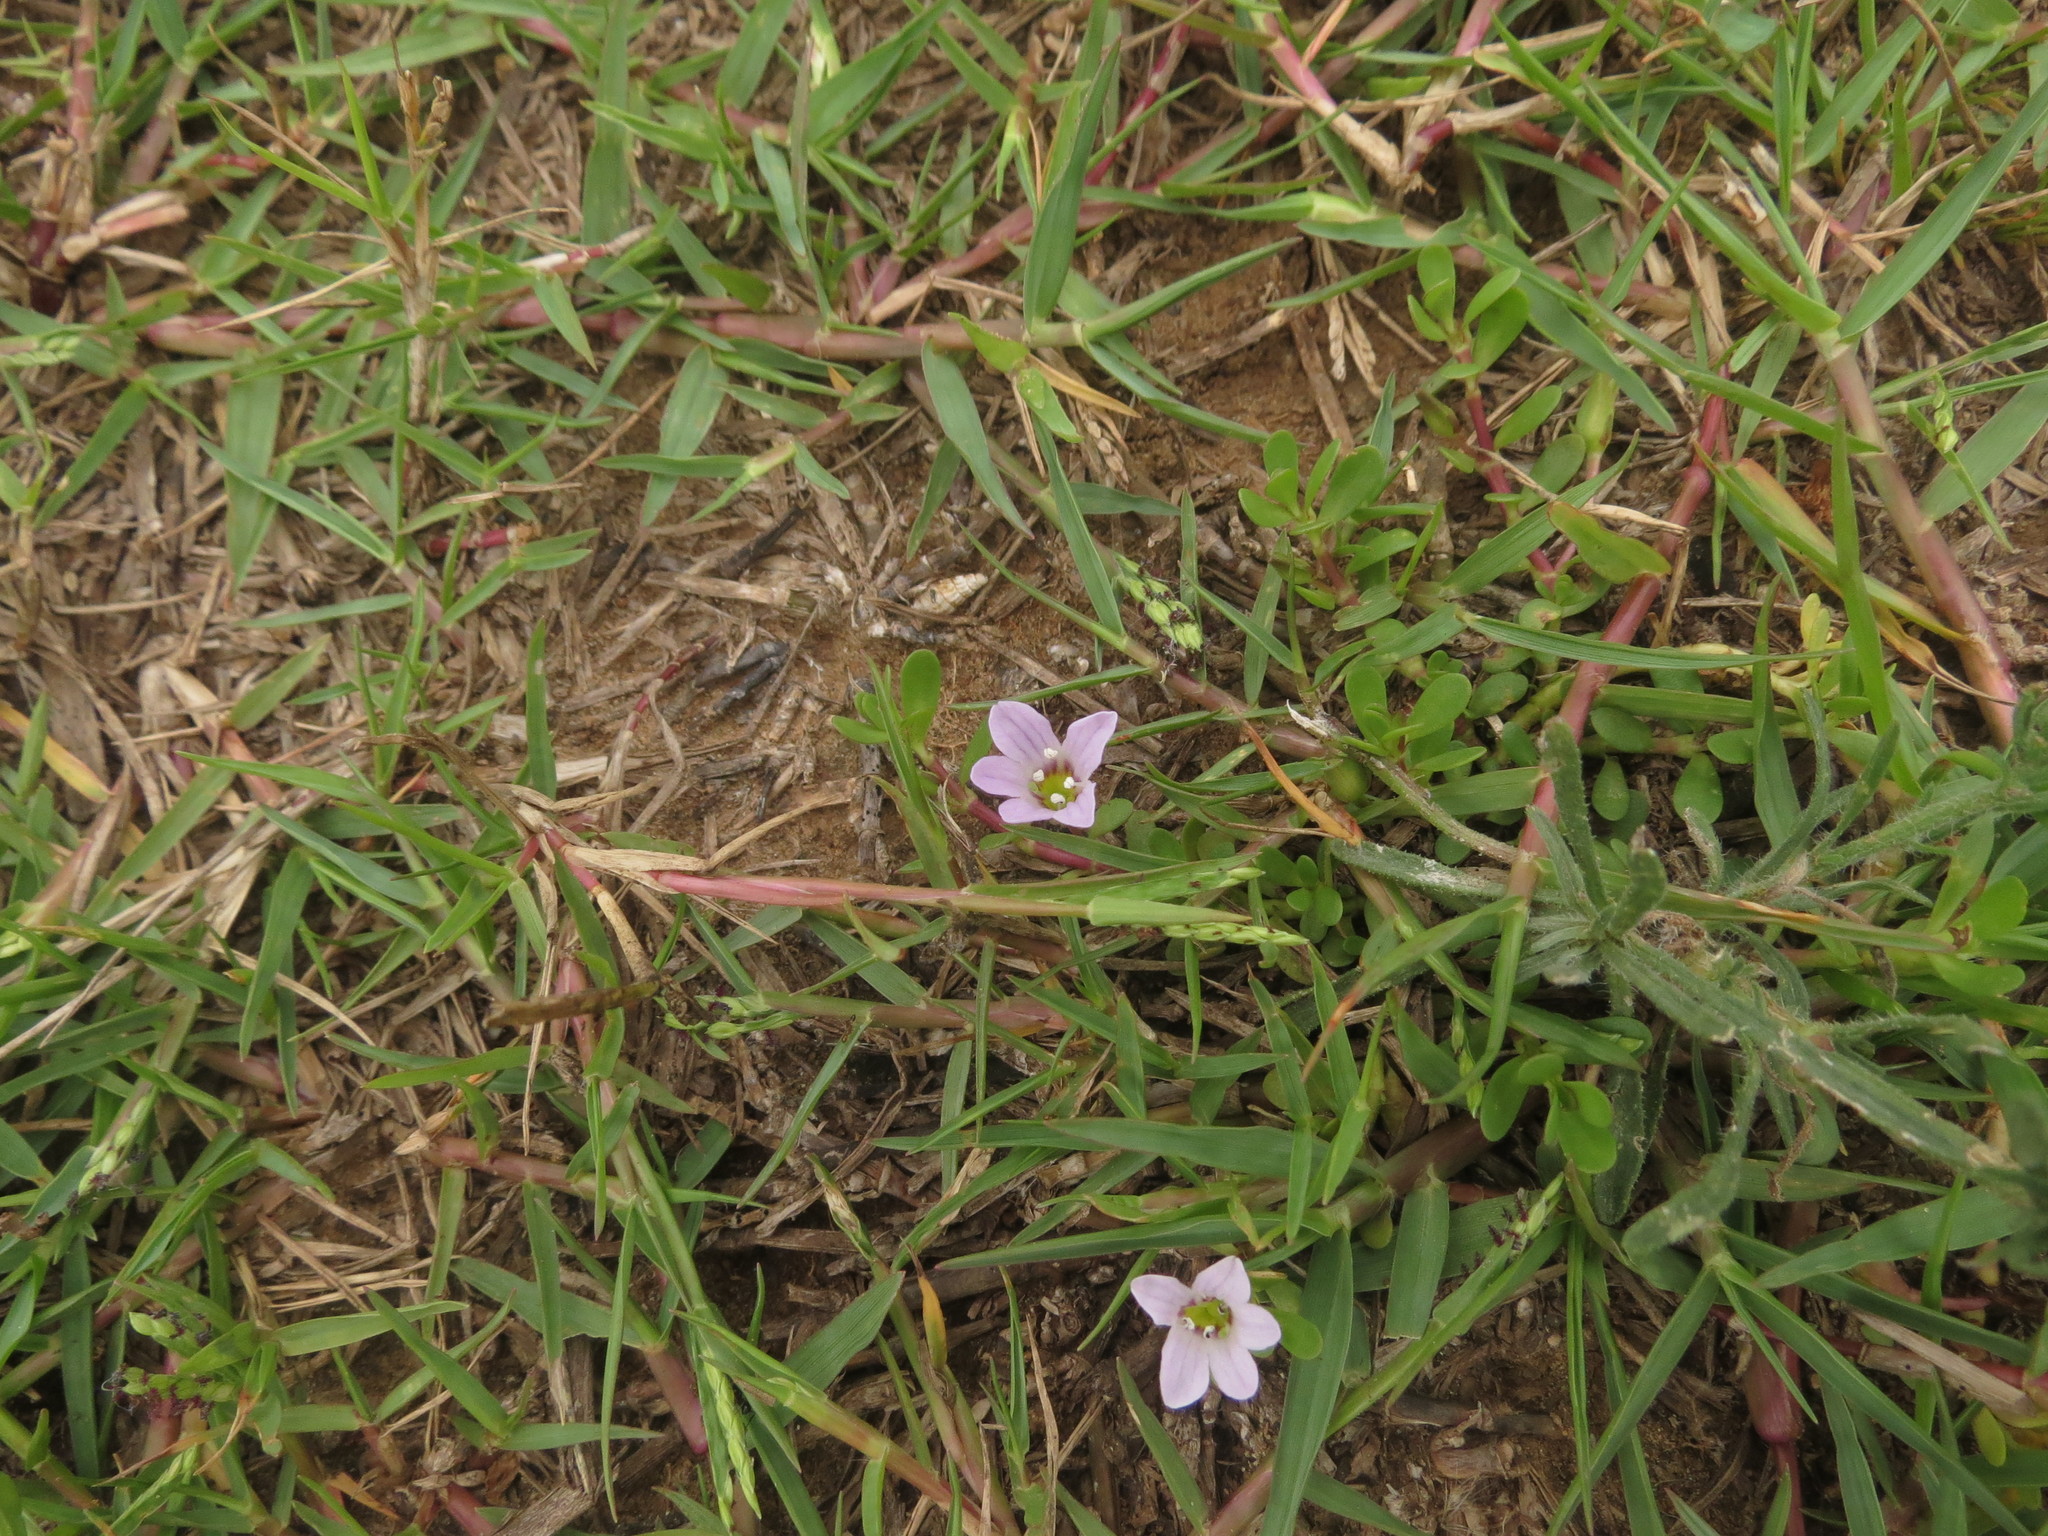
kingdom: Plantae
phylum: Tracheophyta
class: Magnoliopsida
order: Lamiales
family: Plantaginaceae
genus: Bacopa
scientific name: Bacopa monnieri
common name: Indian-pennywort
